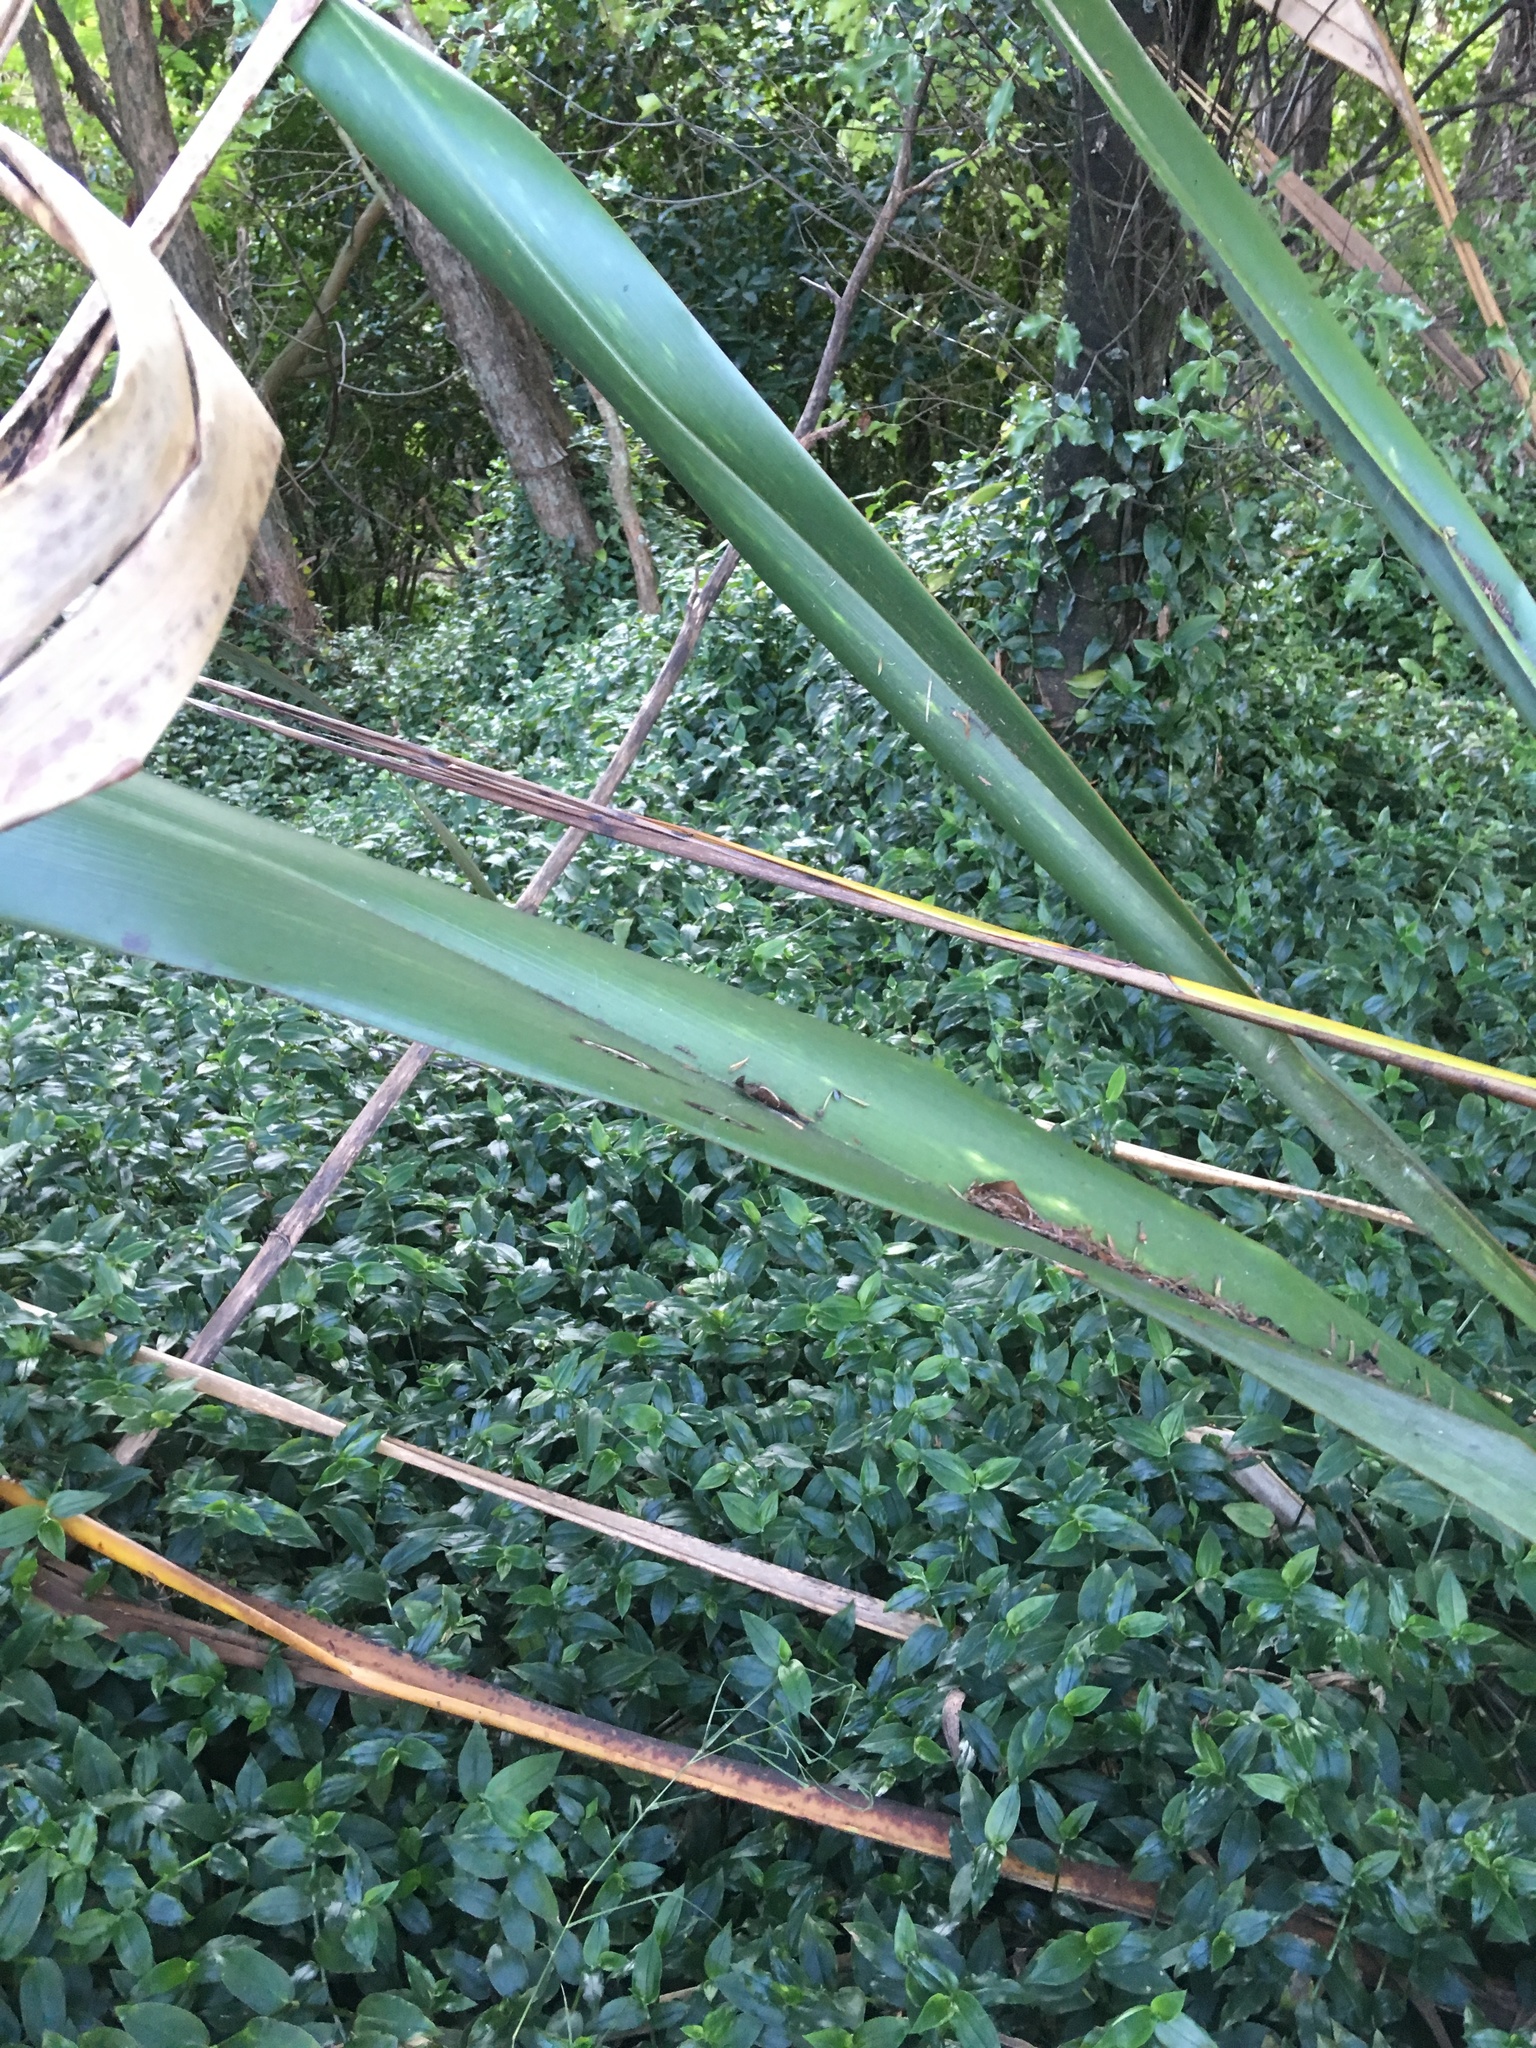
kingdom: Plantae
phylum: Tracheophyta
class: Liliopsida
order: Commelinales
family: Commelinaceae
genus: Tradescantia
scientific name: Tradescantia fluminensis
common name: Wandering-jew
